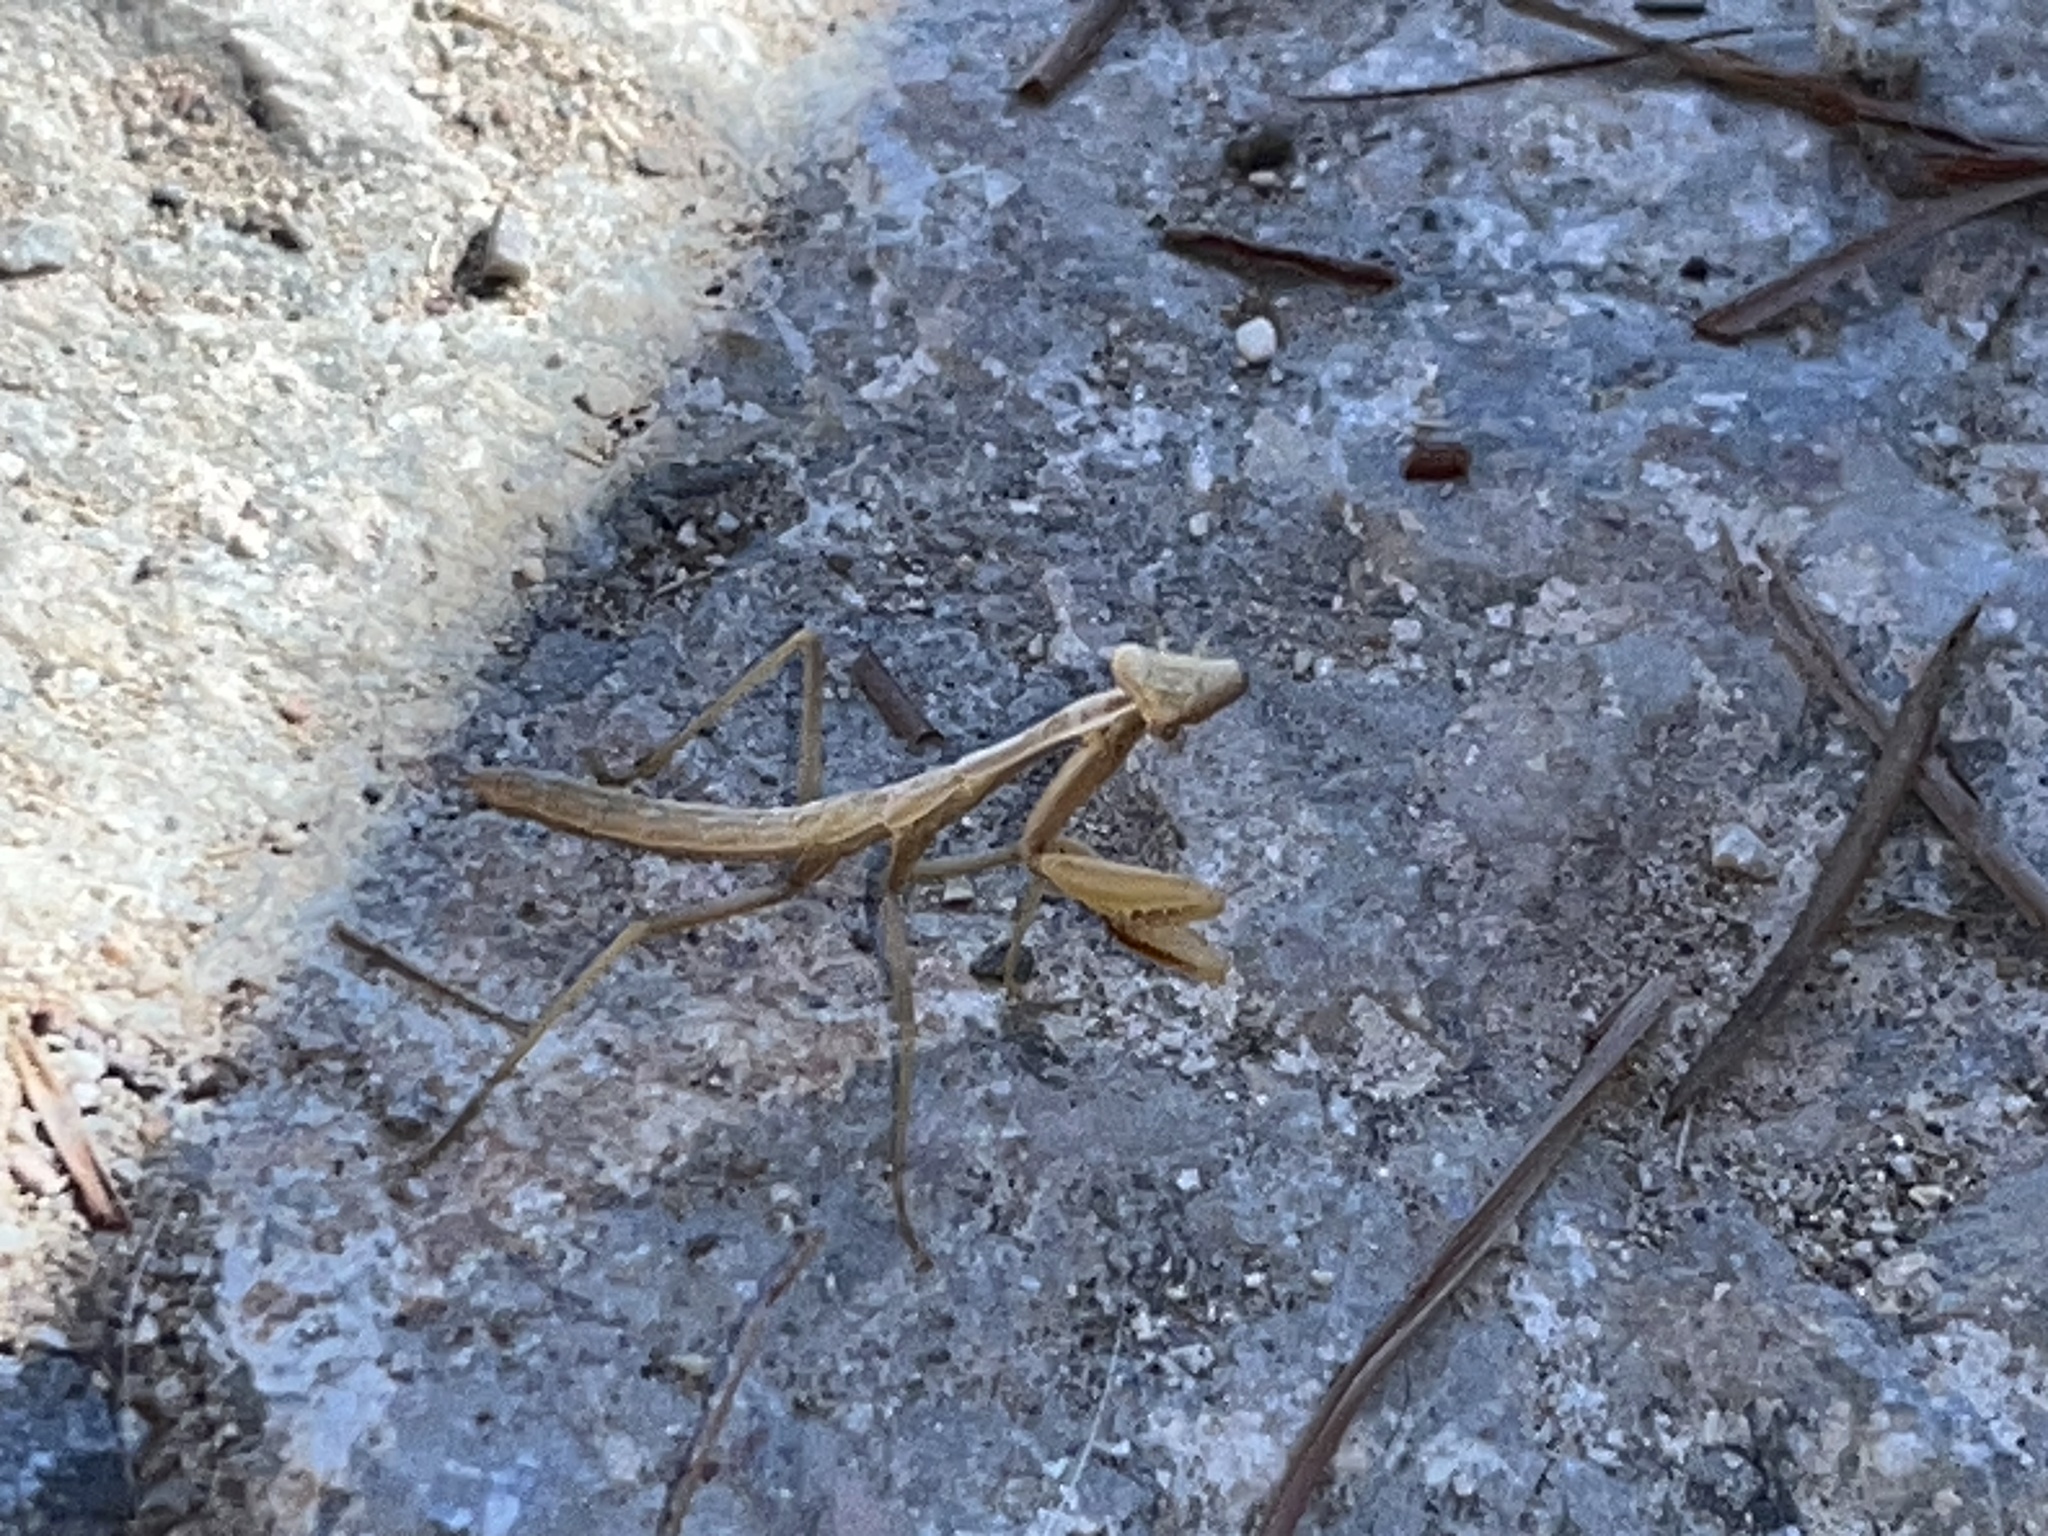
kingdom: Animalia
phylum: Arthropoda
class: Insecta
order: Mantodea
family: Eremiaphilidae
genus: Iris
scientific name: Iris oratoria
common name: Mediterranean mantis
